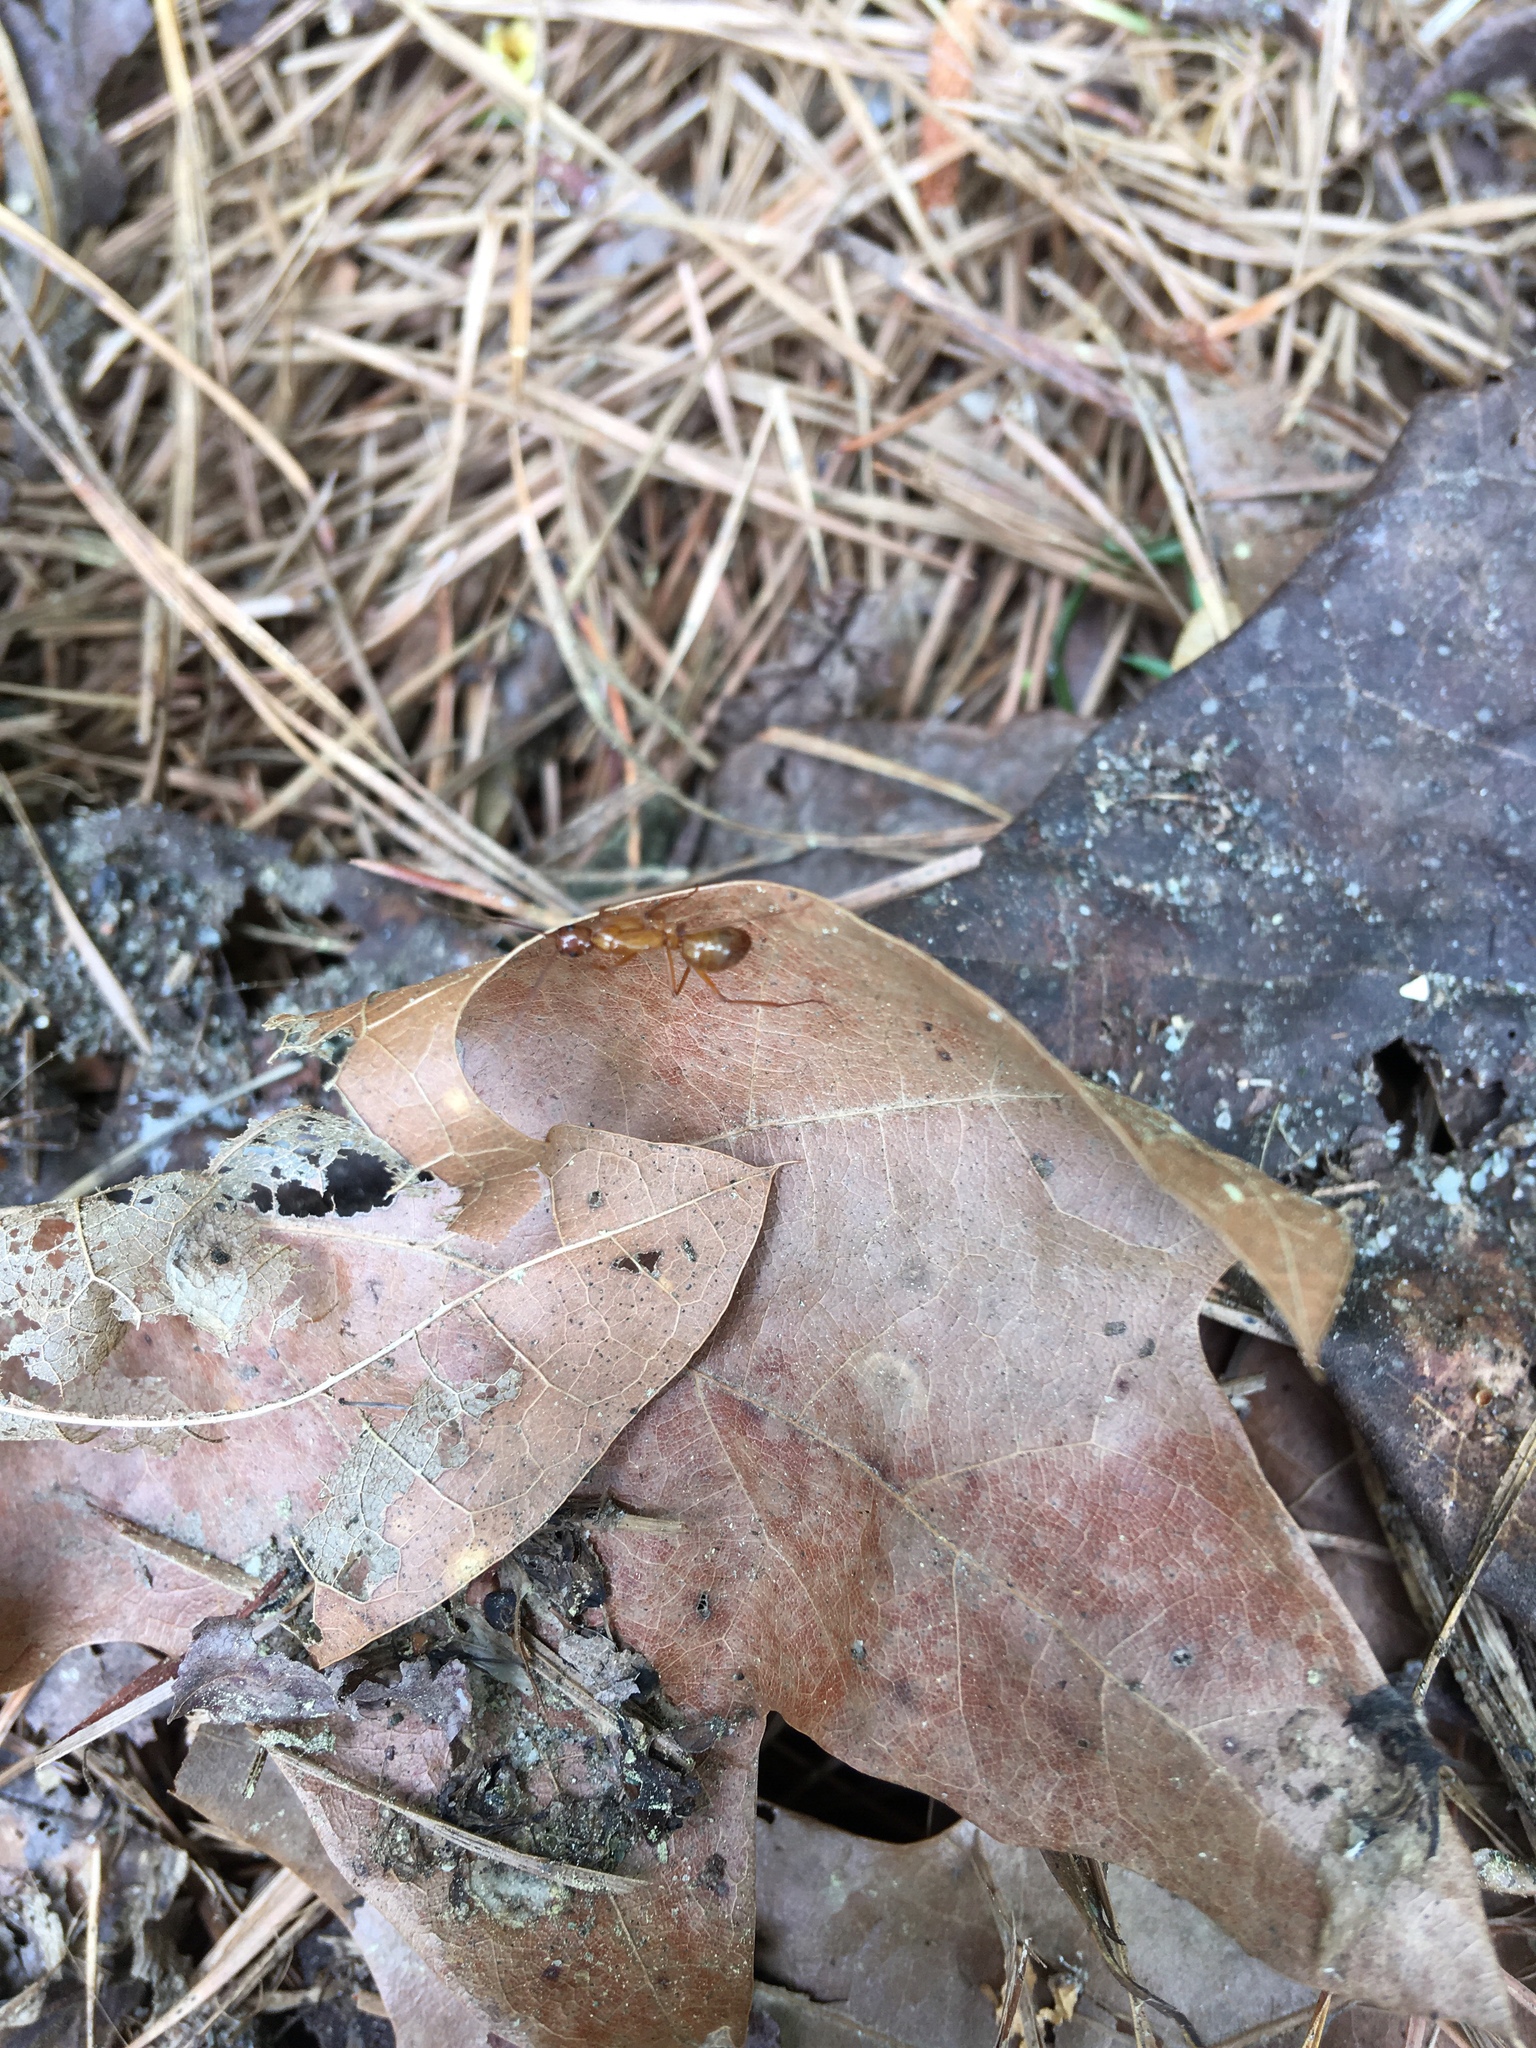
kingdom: Animalia
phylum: Arthropoda
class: Insecta
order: Hymenoptera
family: Formicidae
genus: Camponotus
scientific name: Camponotus castaneus
